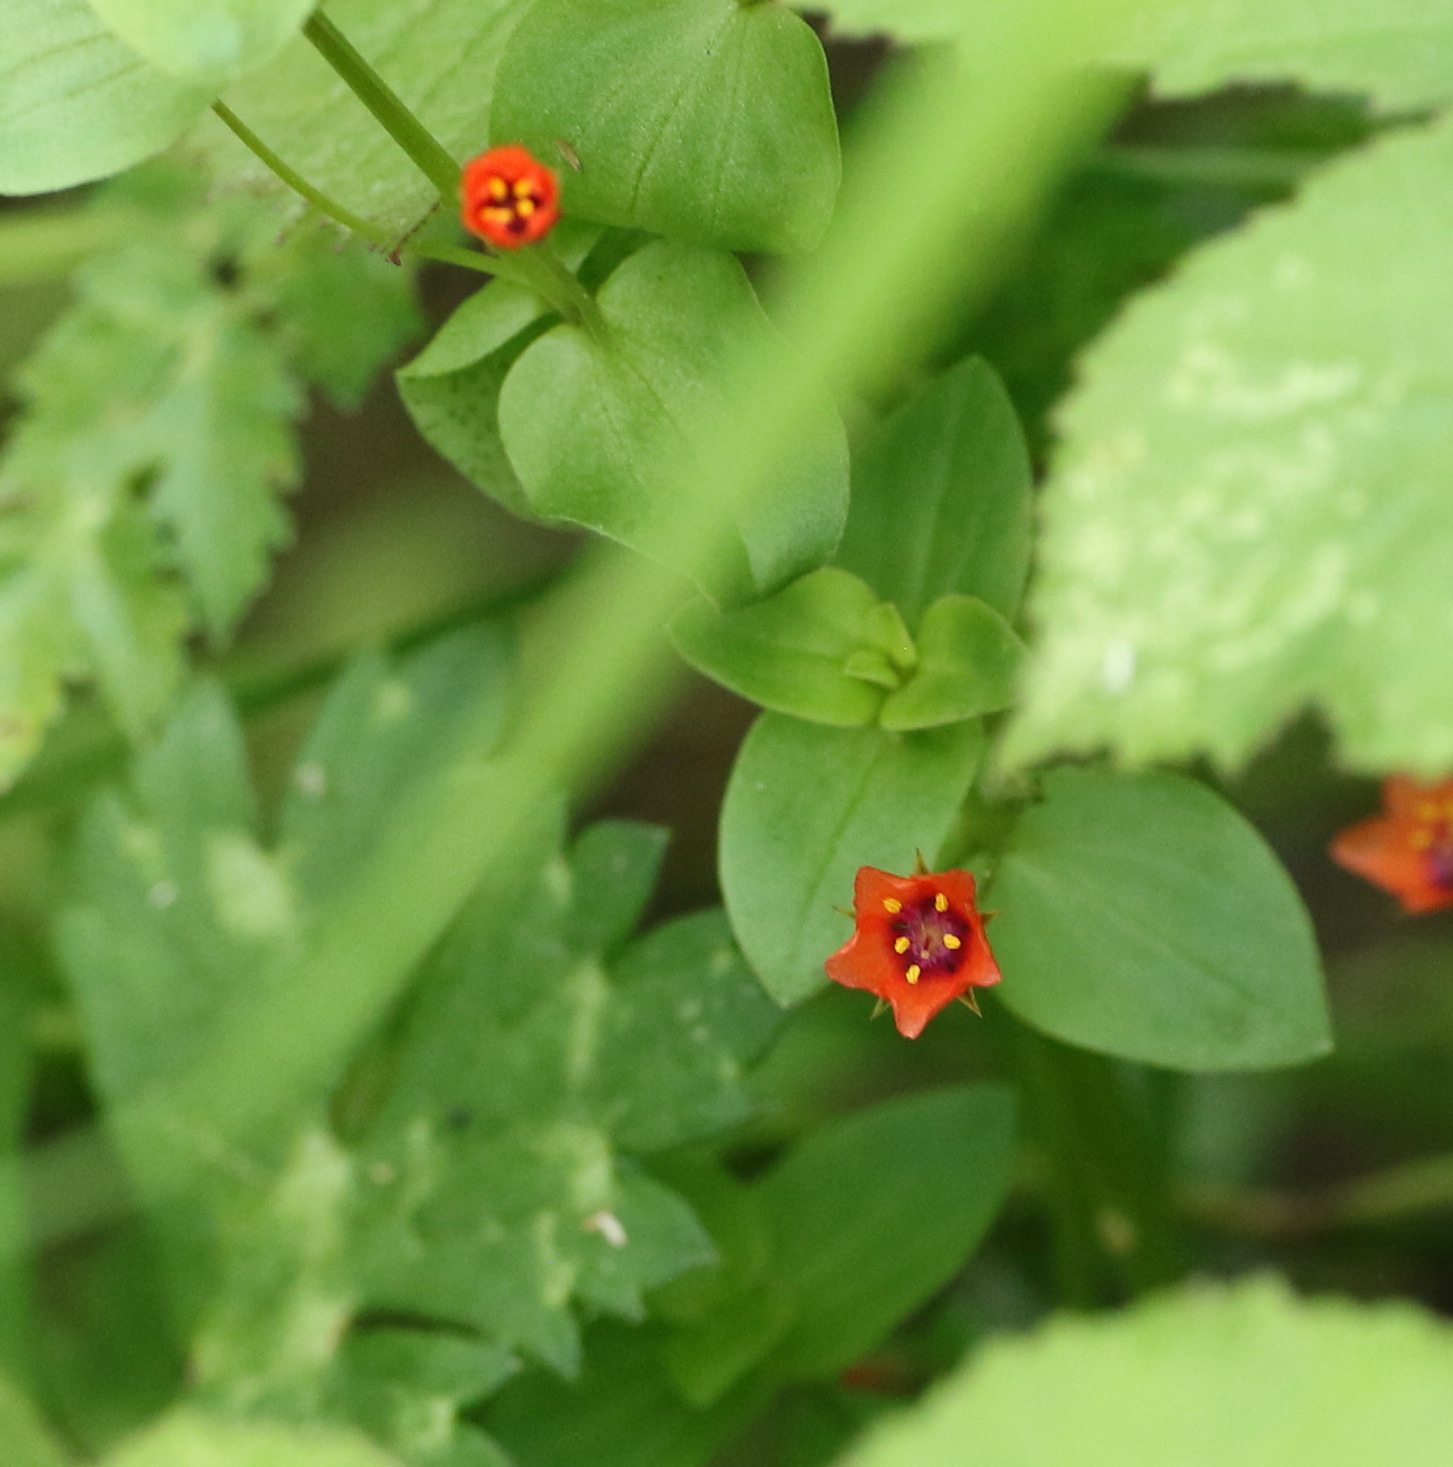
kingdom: Plantae
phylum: Tracheophyta
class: Magnoliopsida
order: Ericales
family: Primulaceae
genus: Lysimachia
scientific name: Lysimachia arvensis
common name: Scarlet pimpernel
